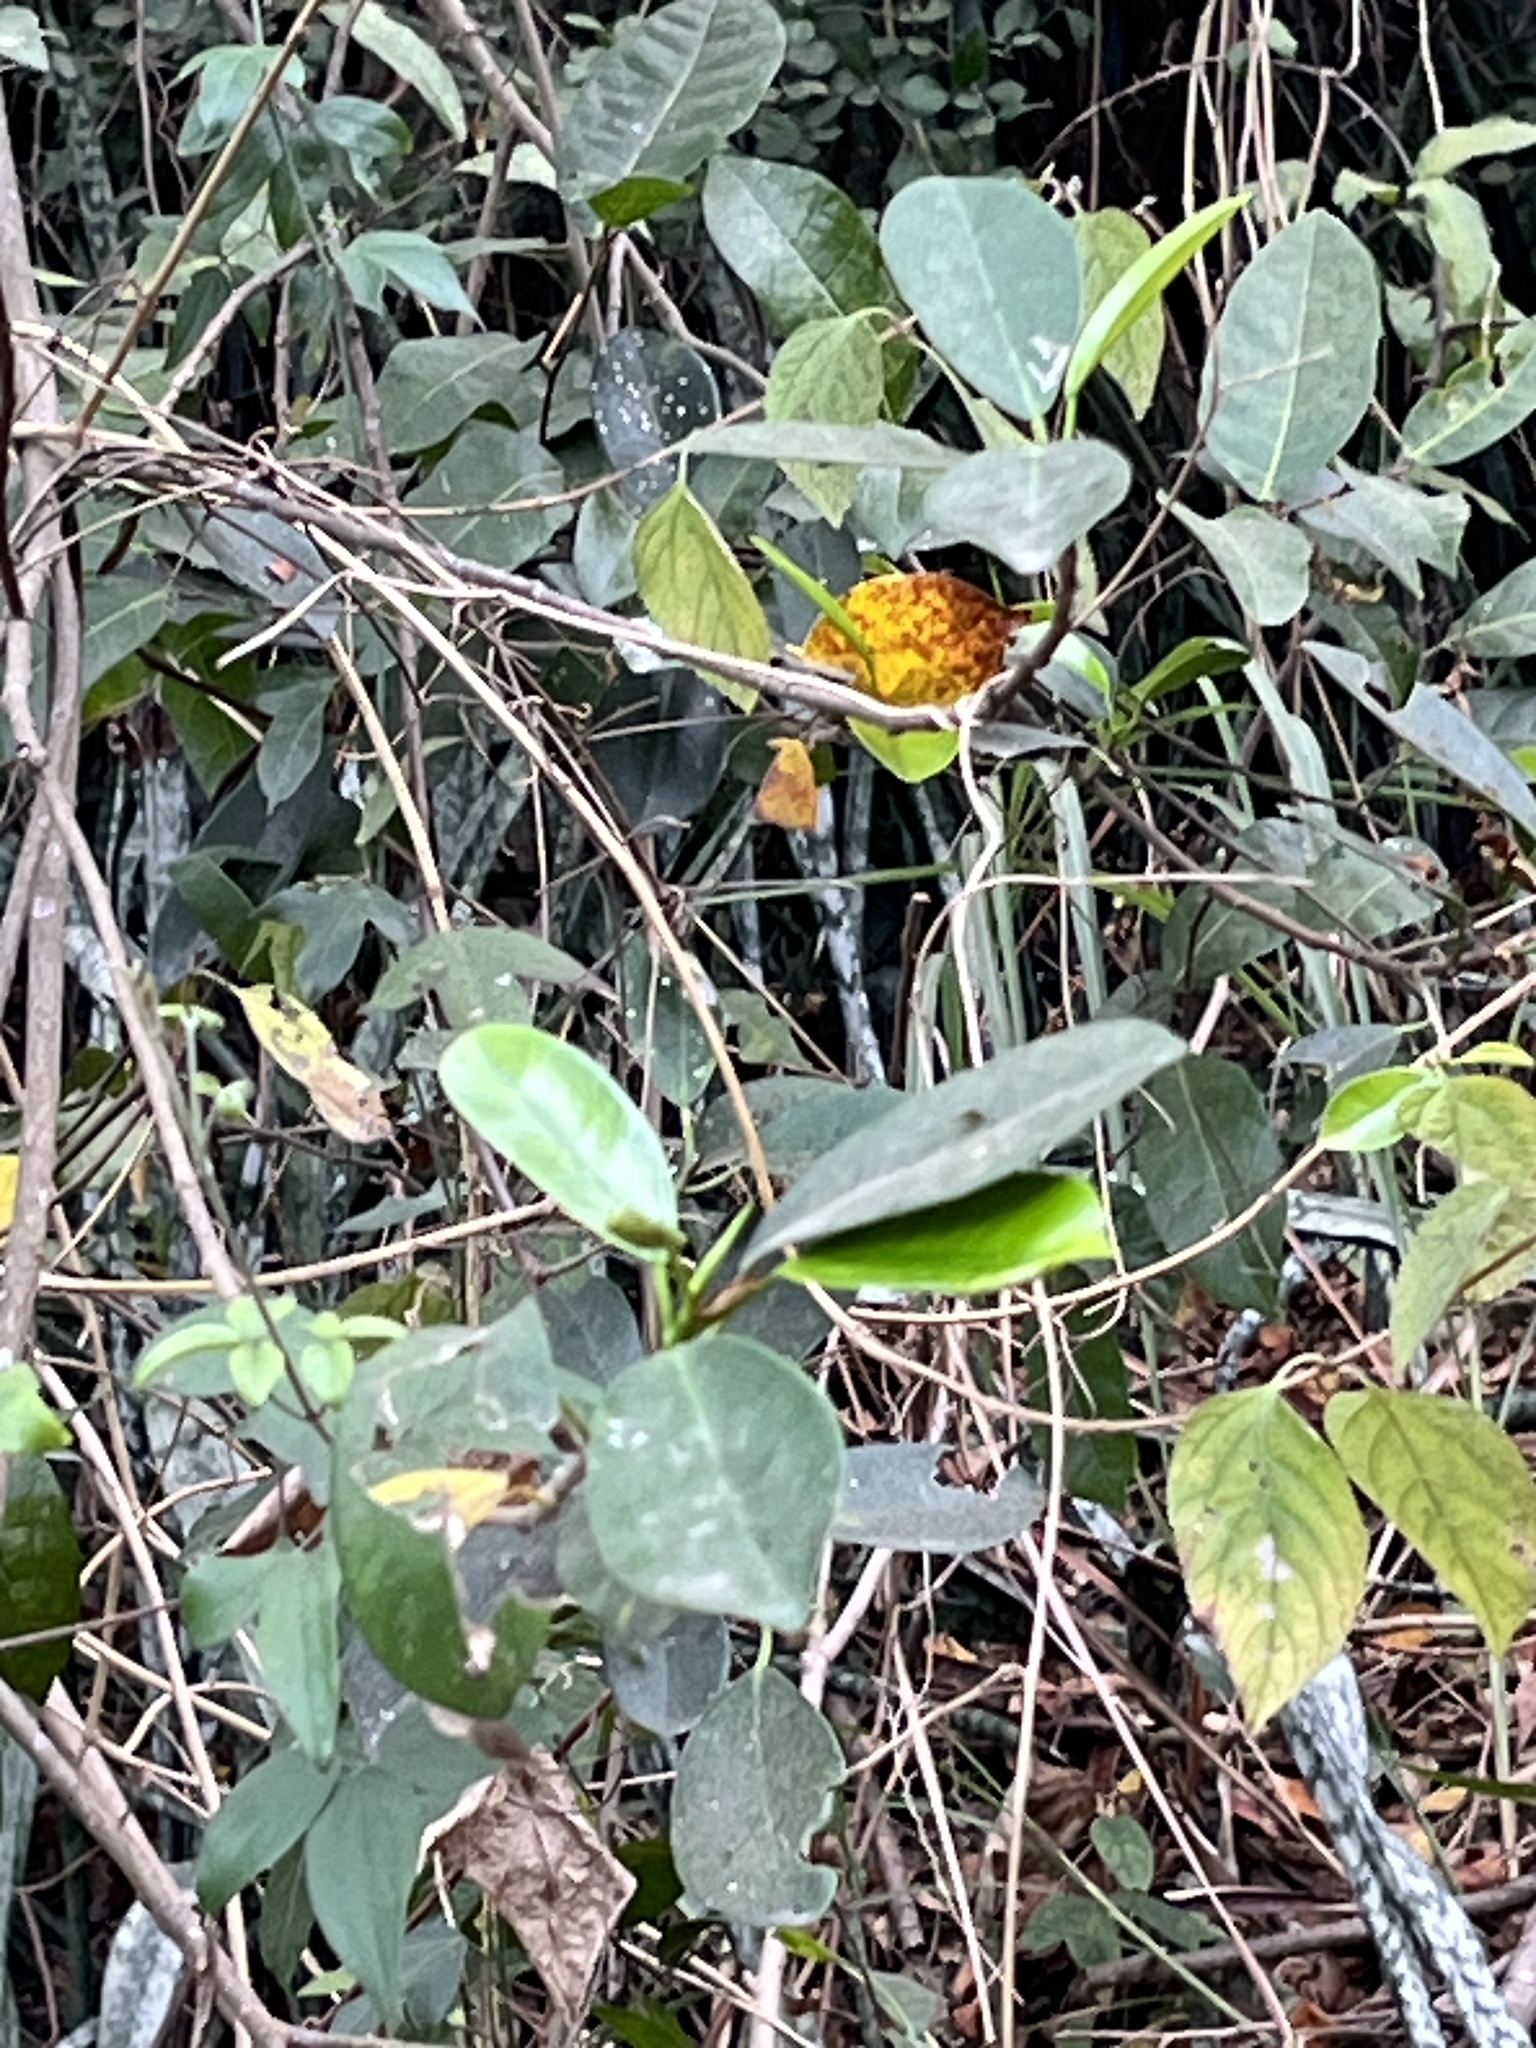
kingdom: Animalia
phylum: Arthropoda
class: Insecta
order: Lepidoptera
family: Nymphalidae
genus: Symbrenthia
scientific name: Symbrenthia hypselis
